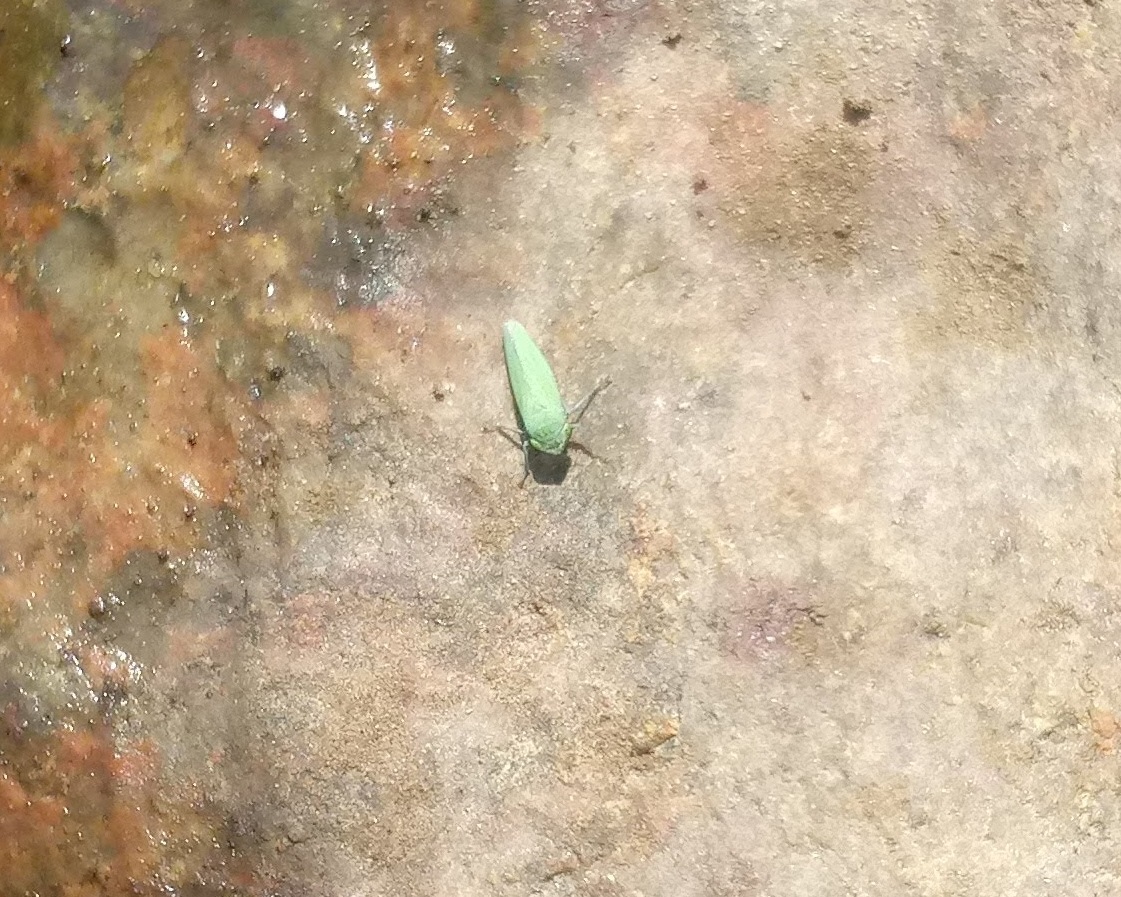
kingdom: Animalia
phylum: Arthropoda
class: Insecta
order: Hemiptera
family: Cicadellidae
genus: Helochara
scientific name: Helochara communis
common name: Bog leafhopper
